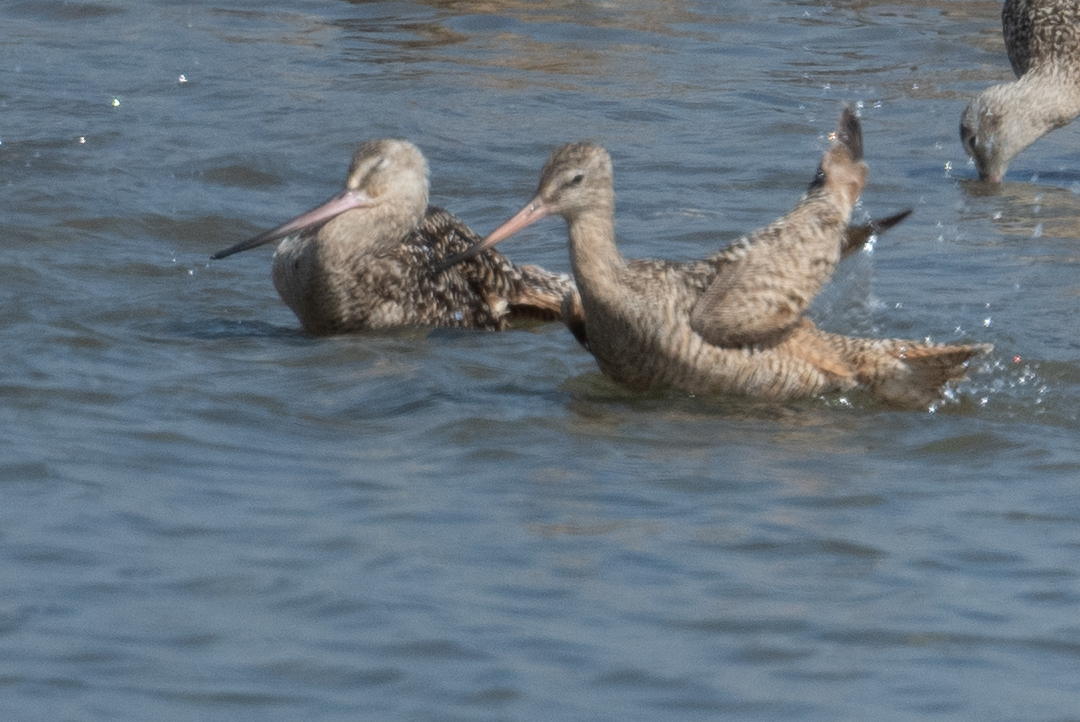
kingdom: Animalia
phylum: Chordata
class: Aves
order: Charadriiformes
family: Scolopacidae
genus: Limosa
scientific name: Limosa fedoa
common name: Marbled godwit
